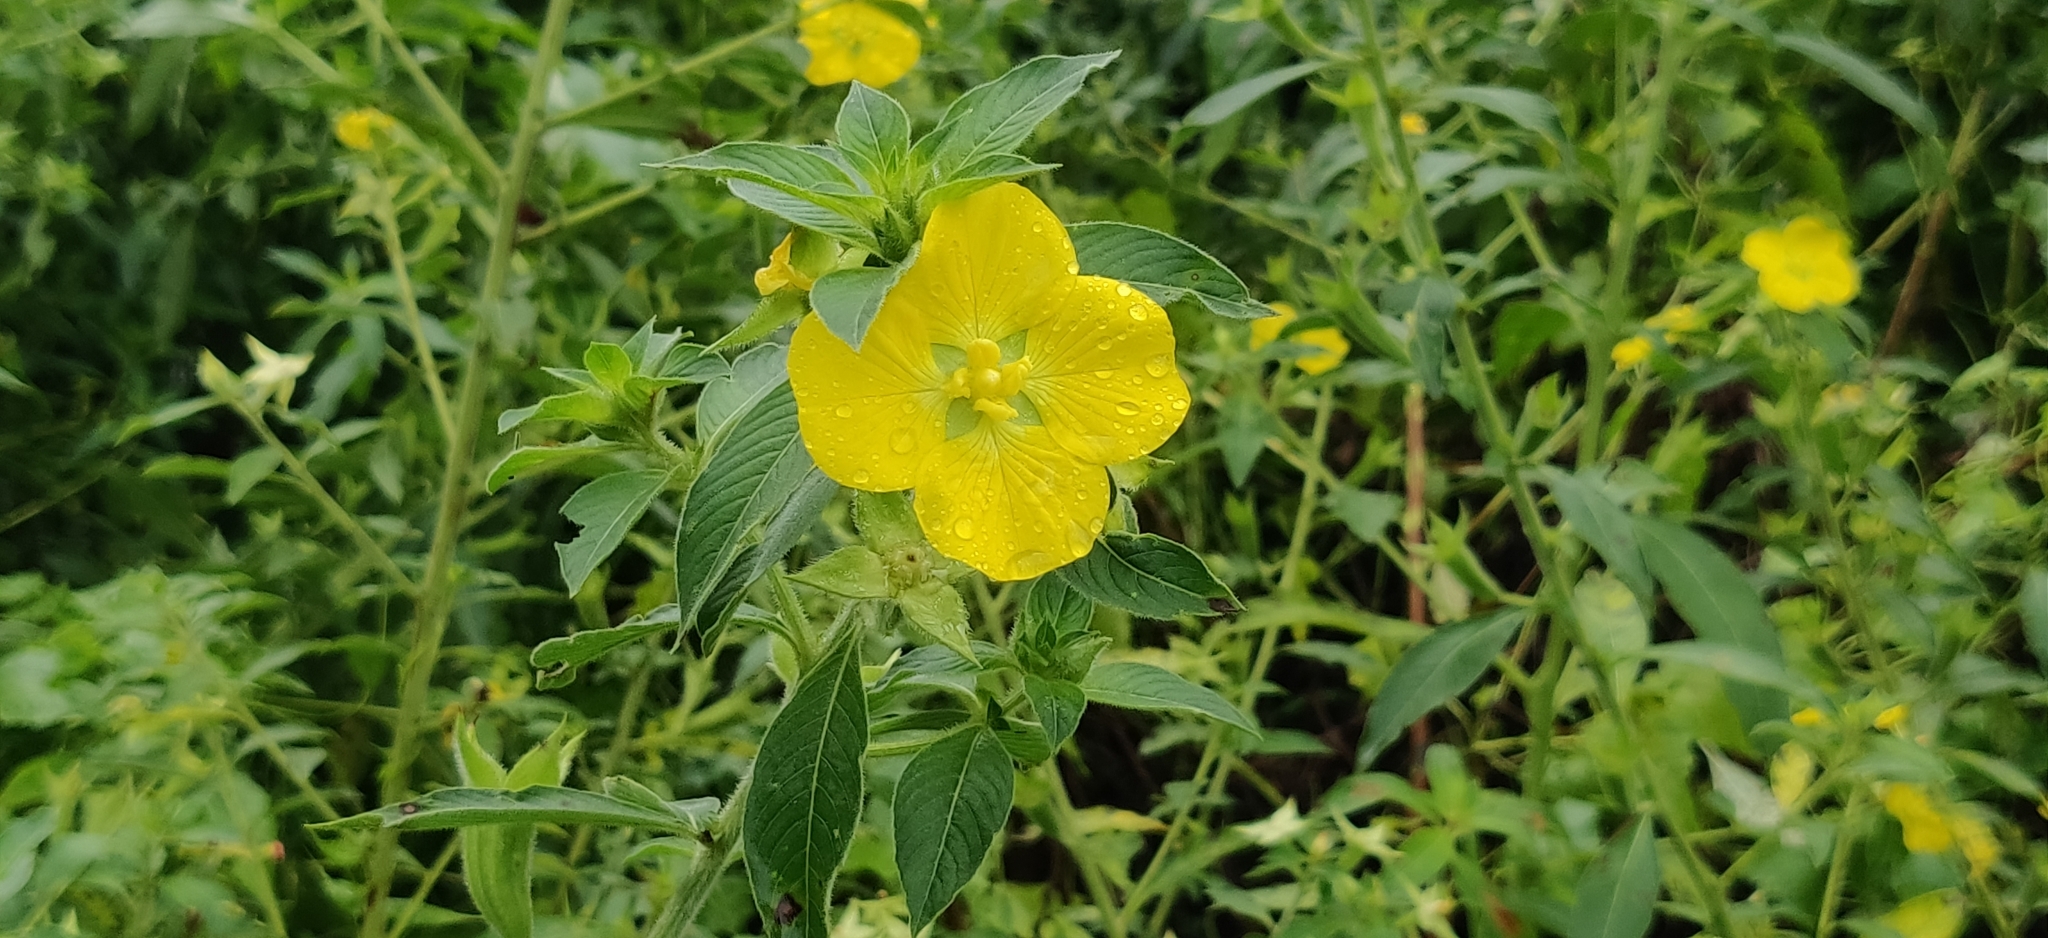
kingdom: Plantae
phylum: Tracheophyta
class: Magnoliopsida
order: Myrtales
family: Onagraceae
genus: Ludwigia
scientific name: Ludwigia peruviana
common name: Peruvian primrose-willow
